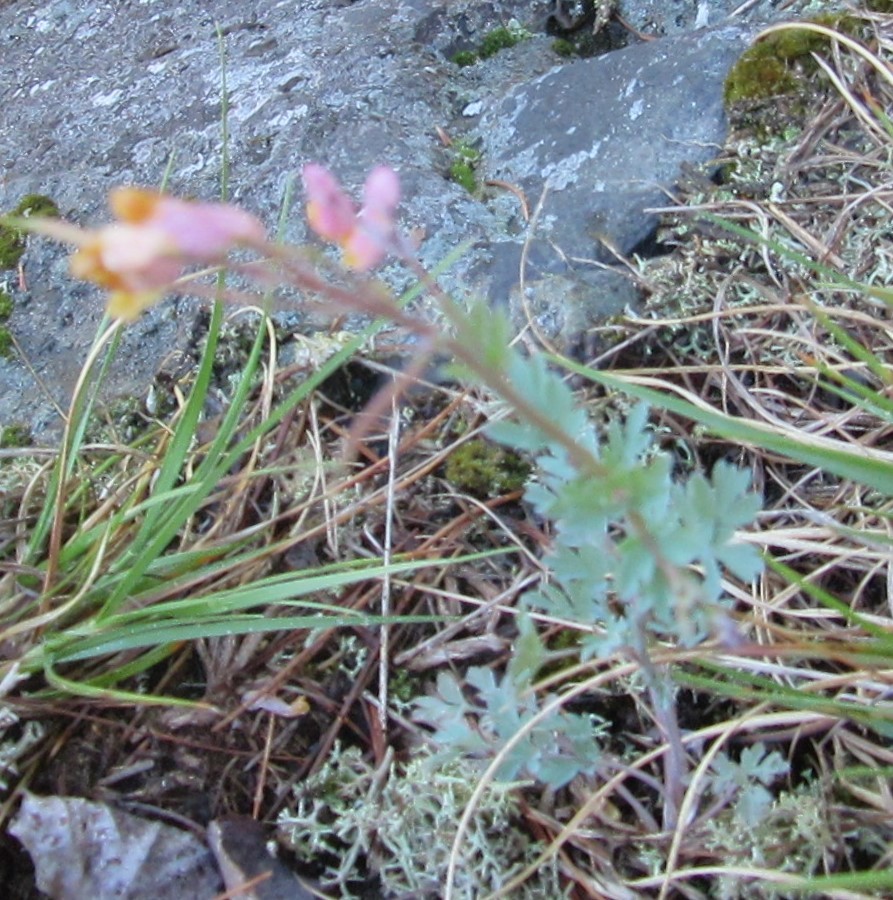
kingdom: Plantae
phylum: Tracheophyta
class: Magnoliopsida
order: Ranunculales
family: Papaveraceae
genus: Capnoides
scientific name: Capnoides sempervirens
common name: Rock harlequin
